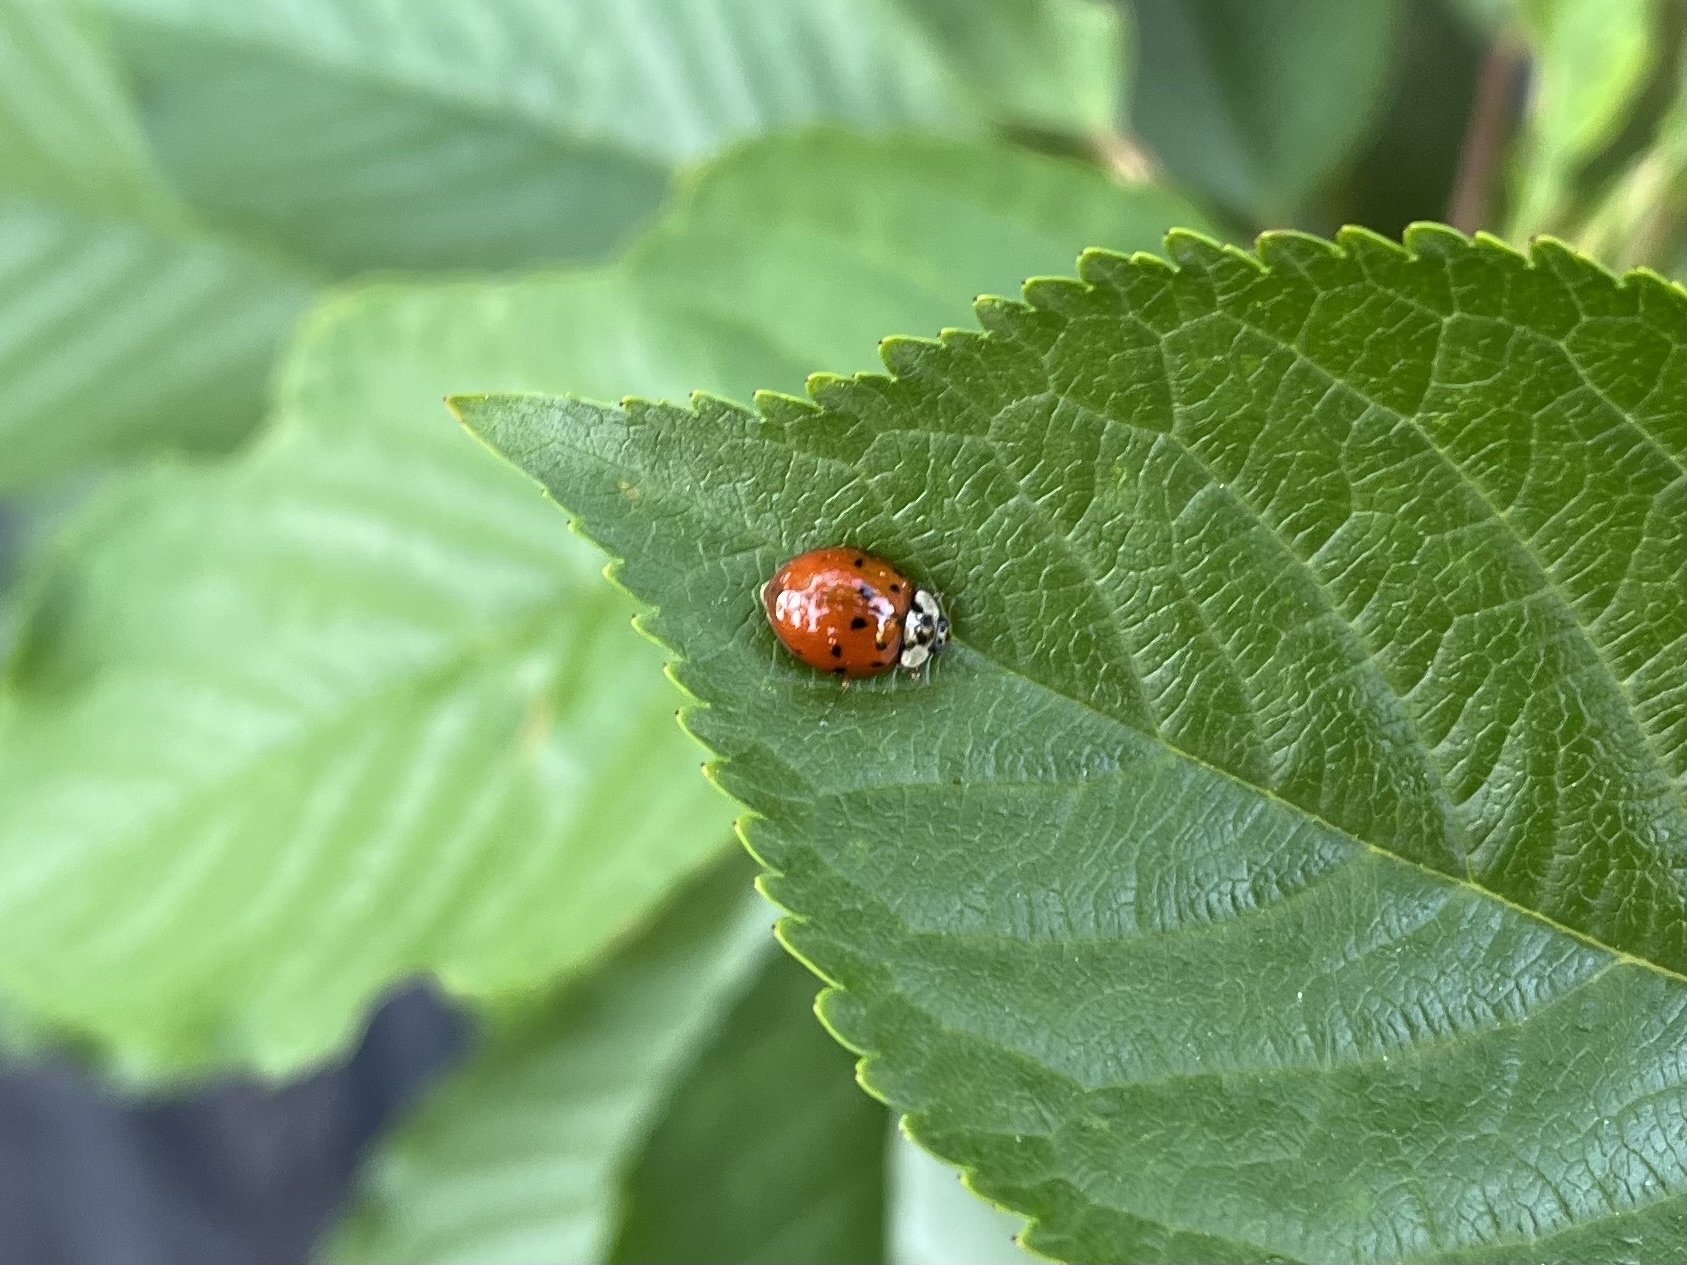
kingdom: Animalia
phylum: Arthropoda
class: Insecta
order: Coleoptera
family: Coccinellidae
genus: Harmonia
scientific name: Harmonia axyridis
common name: Harlequin ladybird
